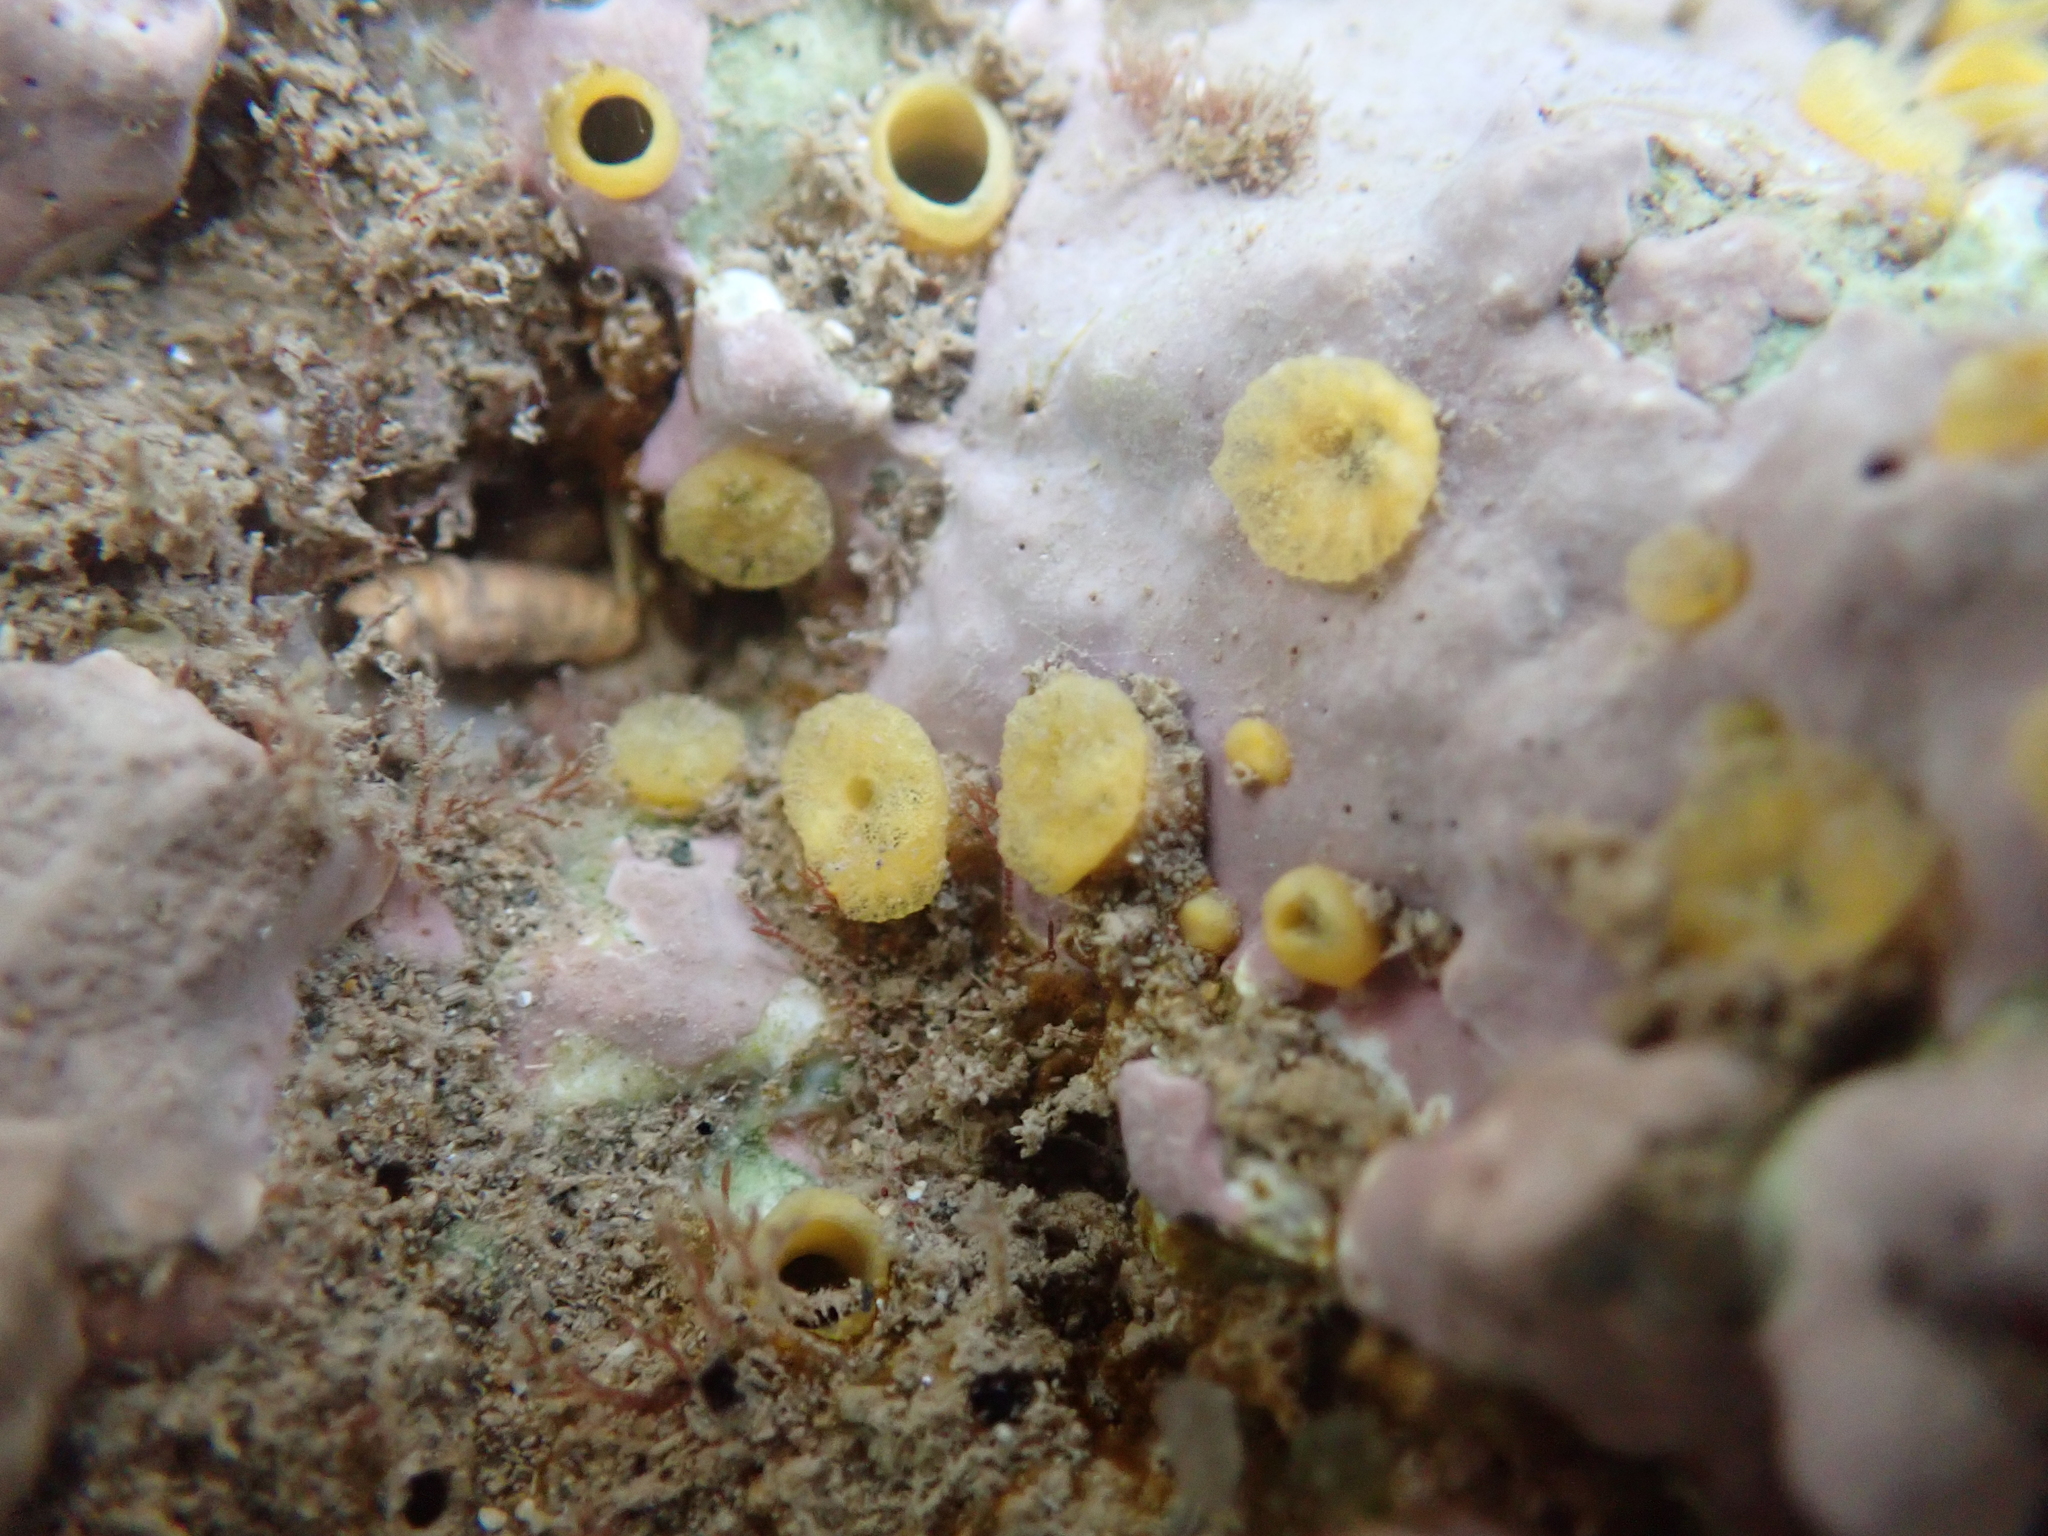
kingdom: Animalia
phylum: Porifera
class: Demospongiae
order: Clionaida
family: Clionaidae
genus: Cliona
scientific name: Cliona celata
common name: Boring sponge
